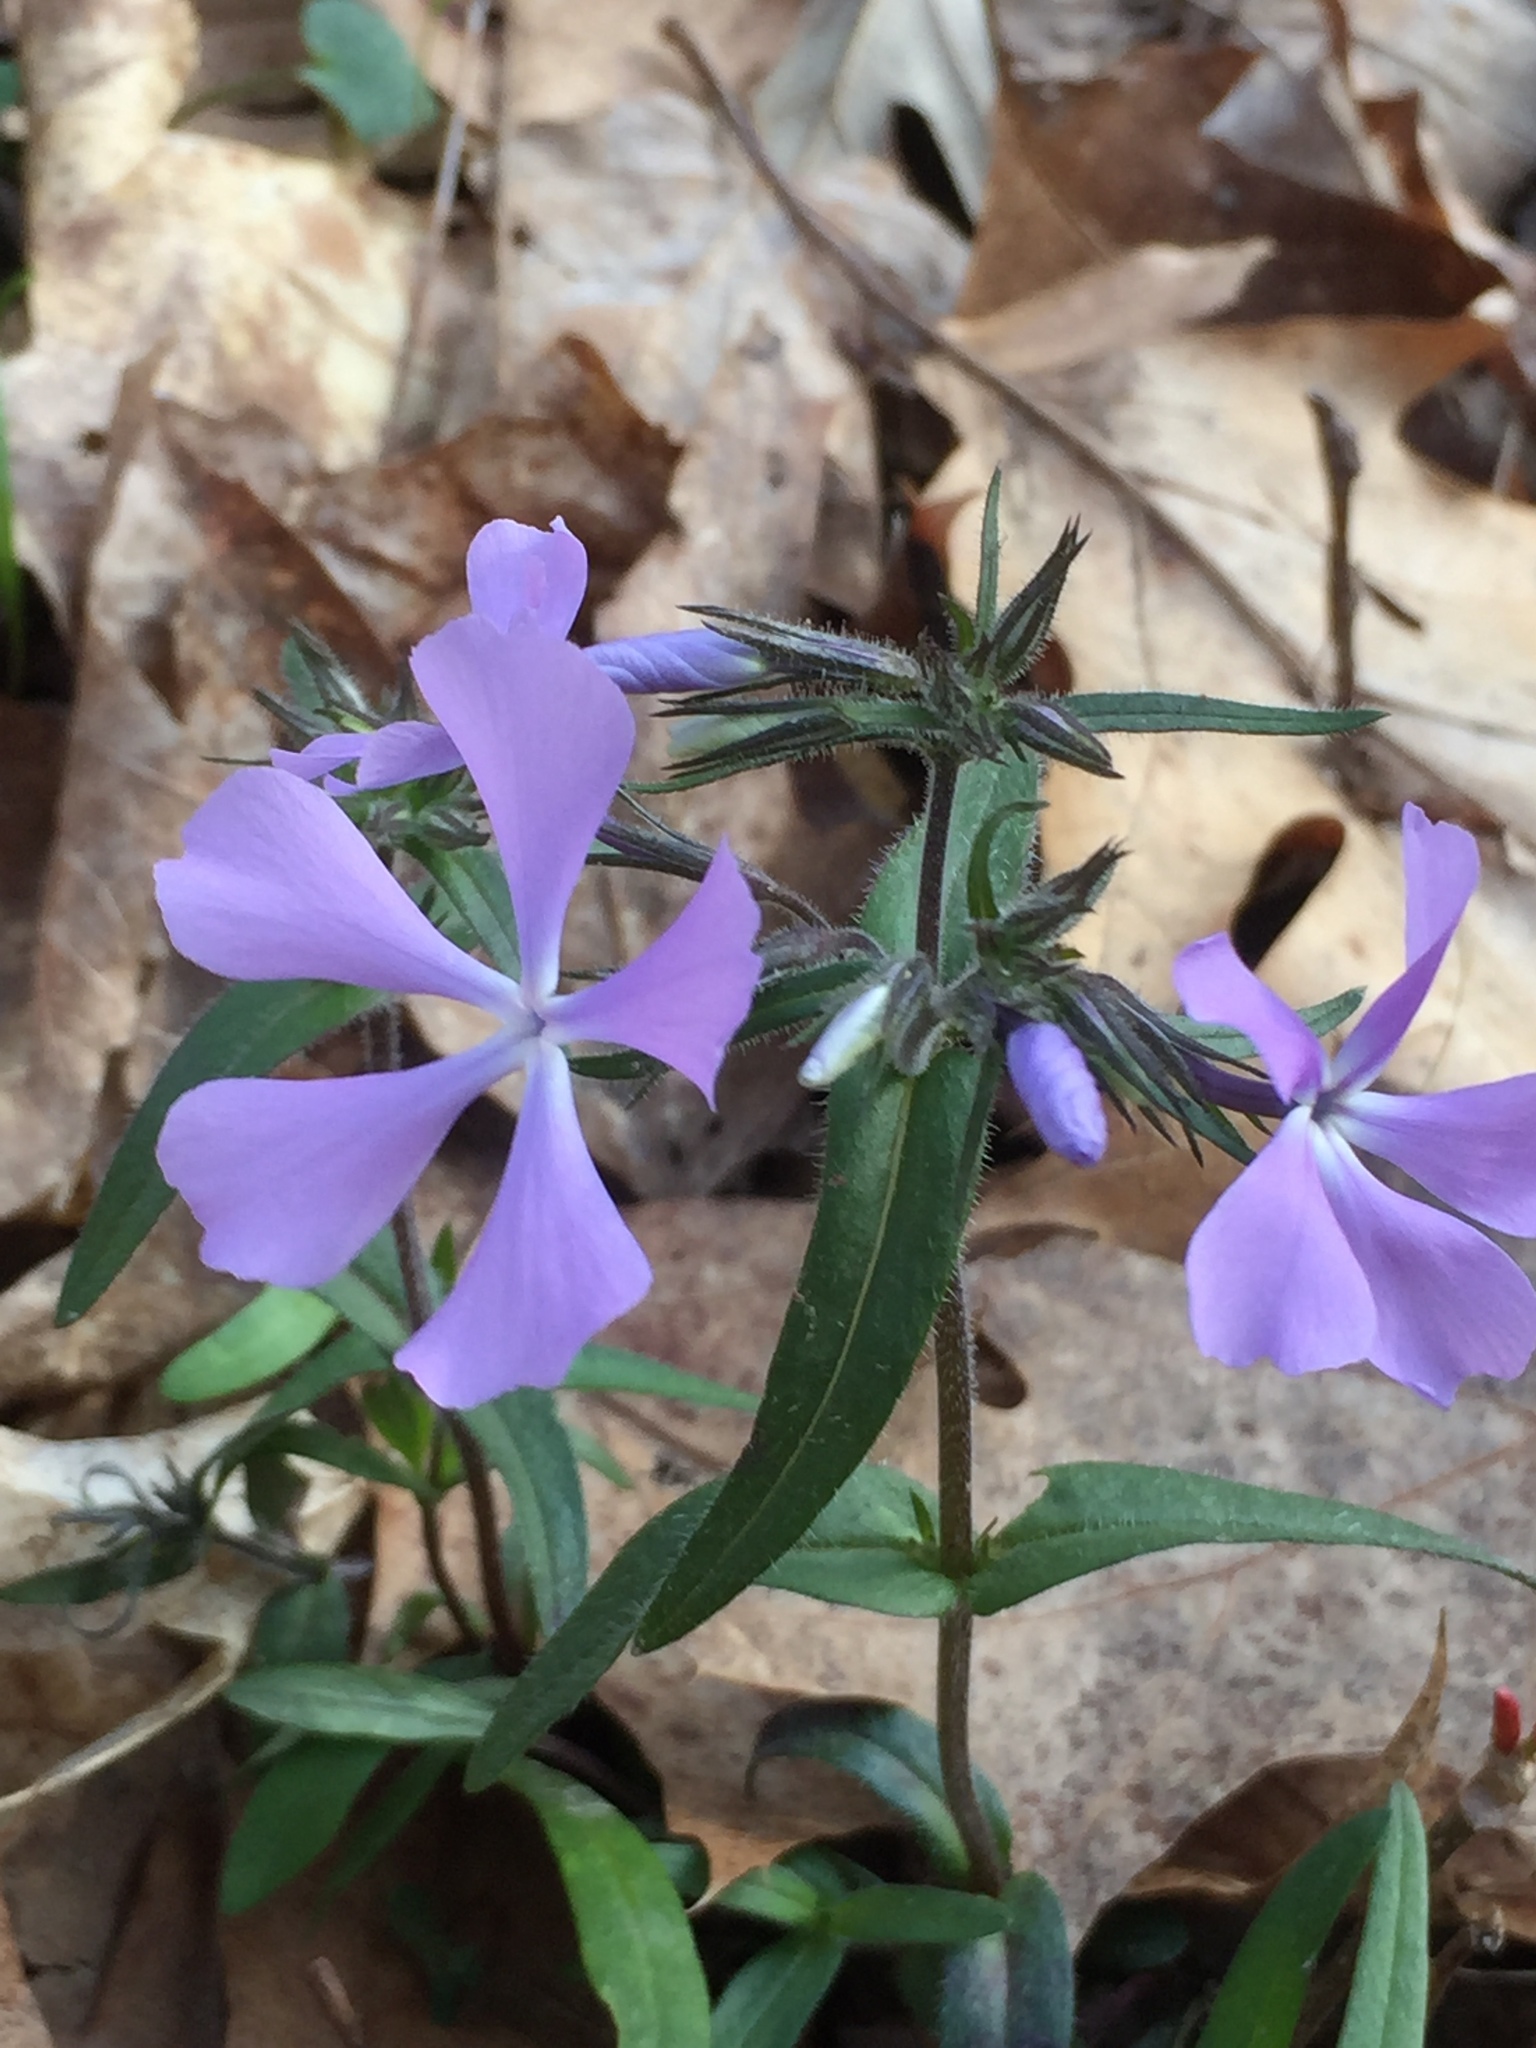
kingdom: Plantae
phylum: Tracheophyta
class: Magnoliopsida
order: Ericales
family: Polemoniaceae
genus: Phlox
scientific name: Phlox divaricata
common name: Blue phlox
